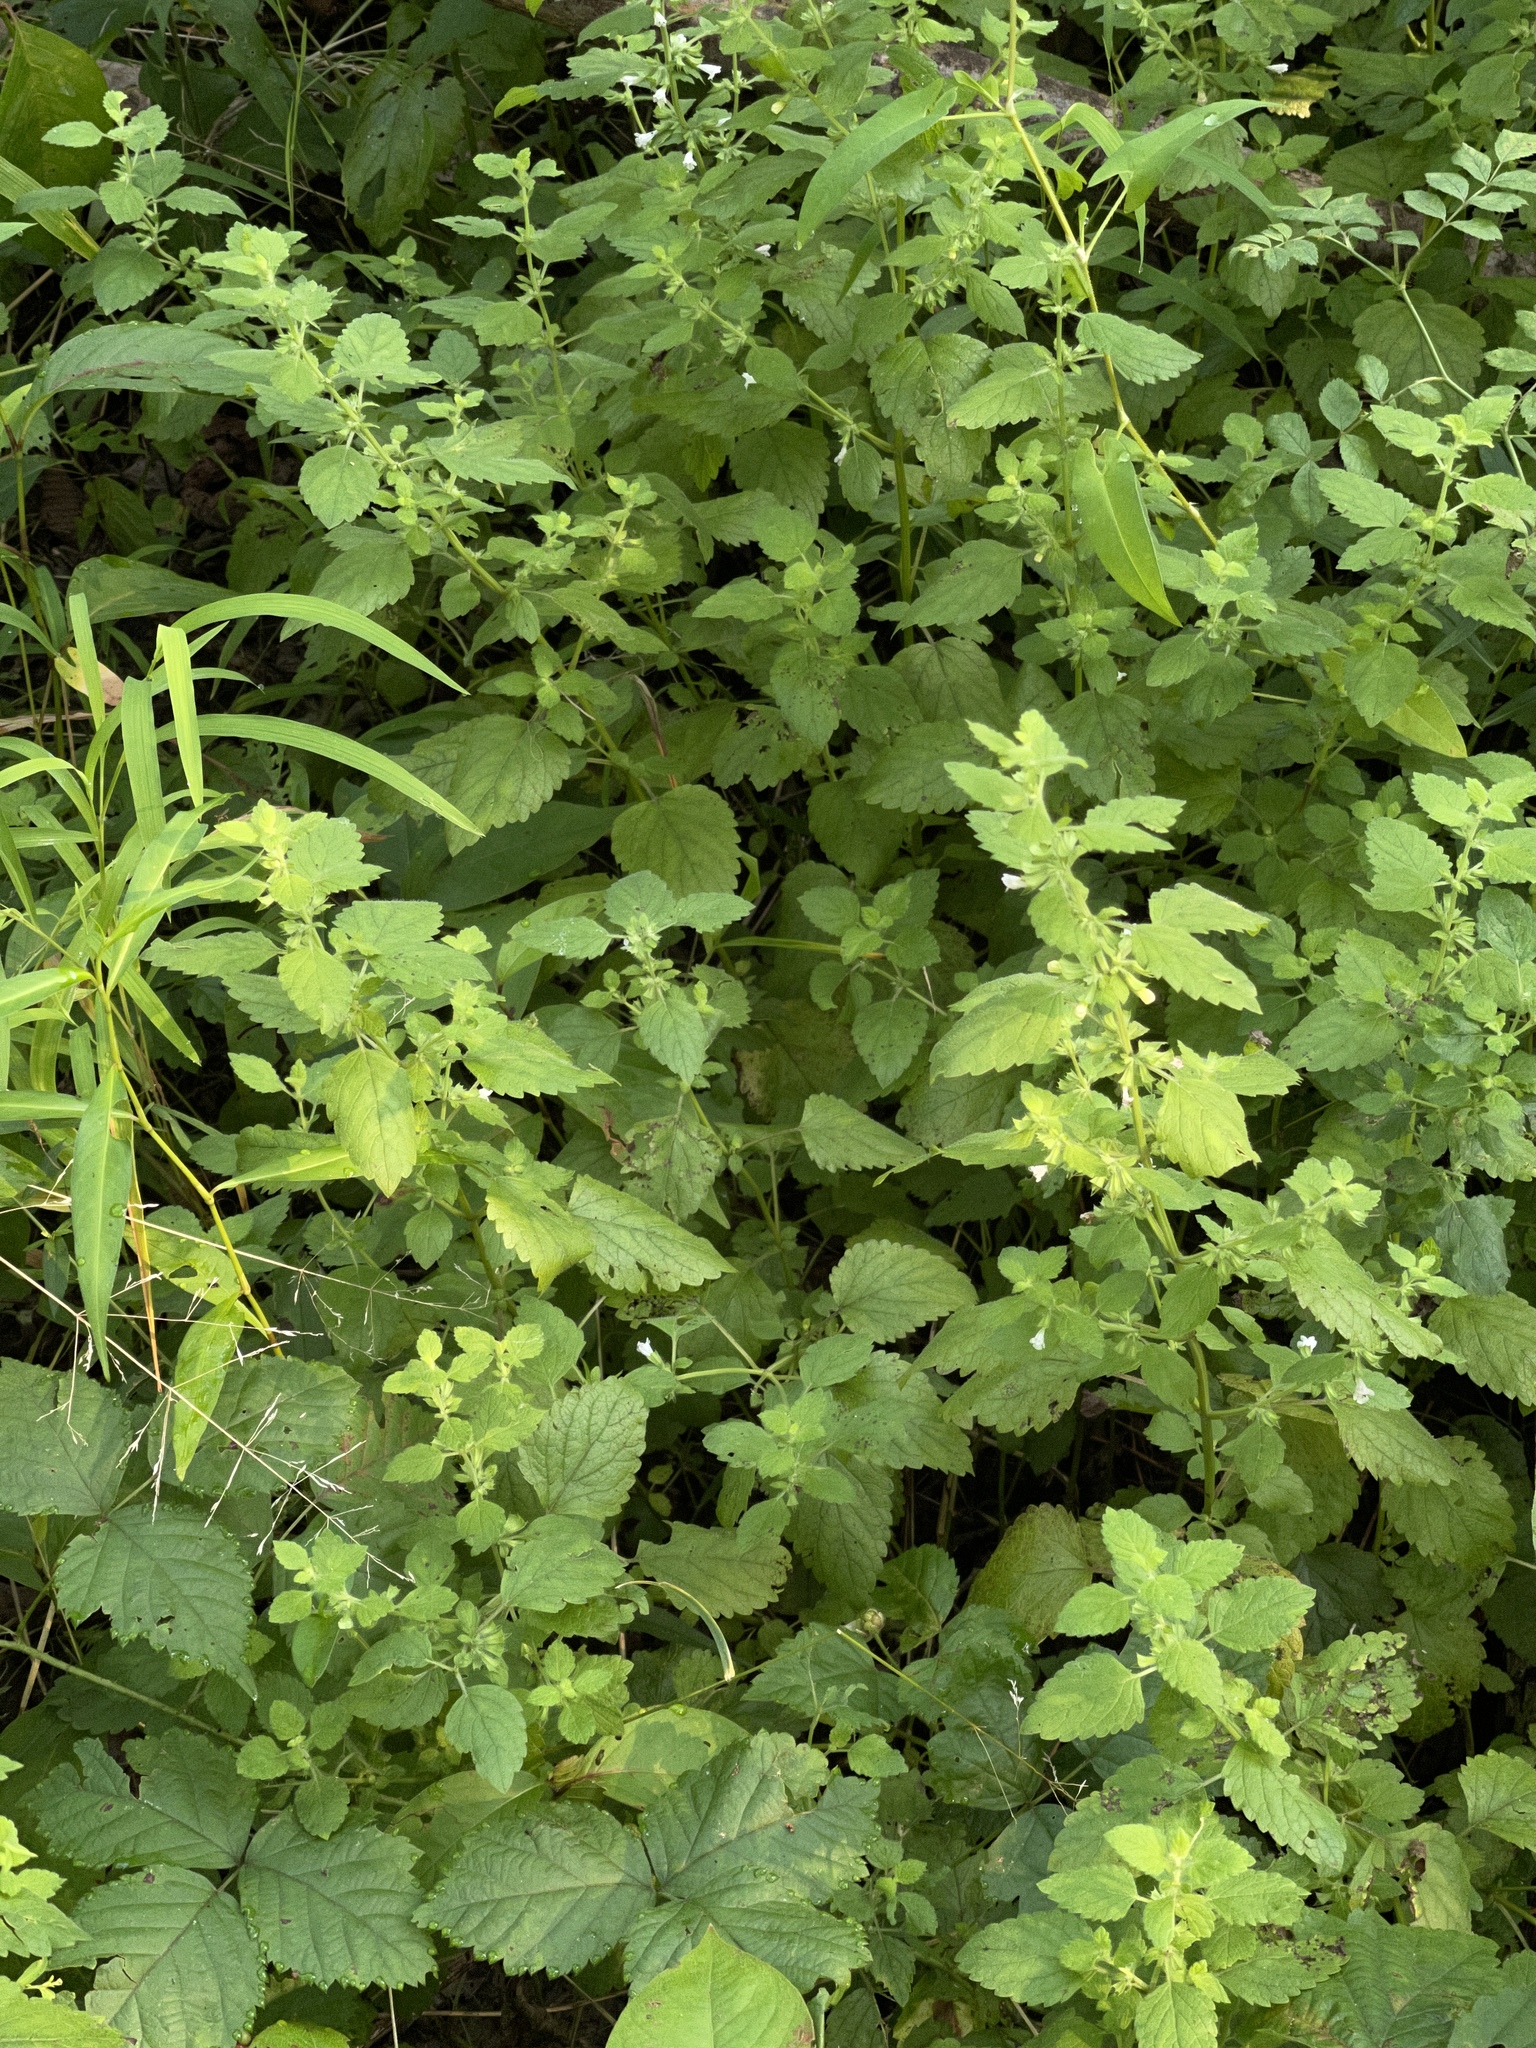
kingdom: Plantae
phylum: Tracheophyta
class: Magnoliopsida
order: Lamiales
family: Lamiaceae
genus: Melissa
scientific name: Melissa officinalis
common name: Balm
